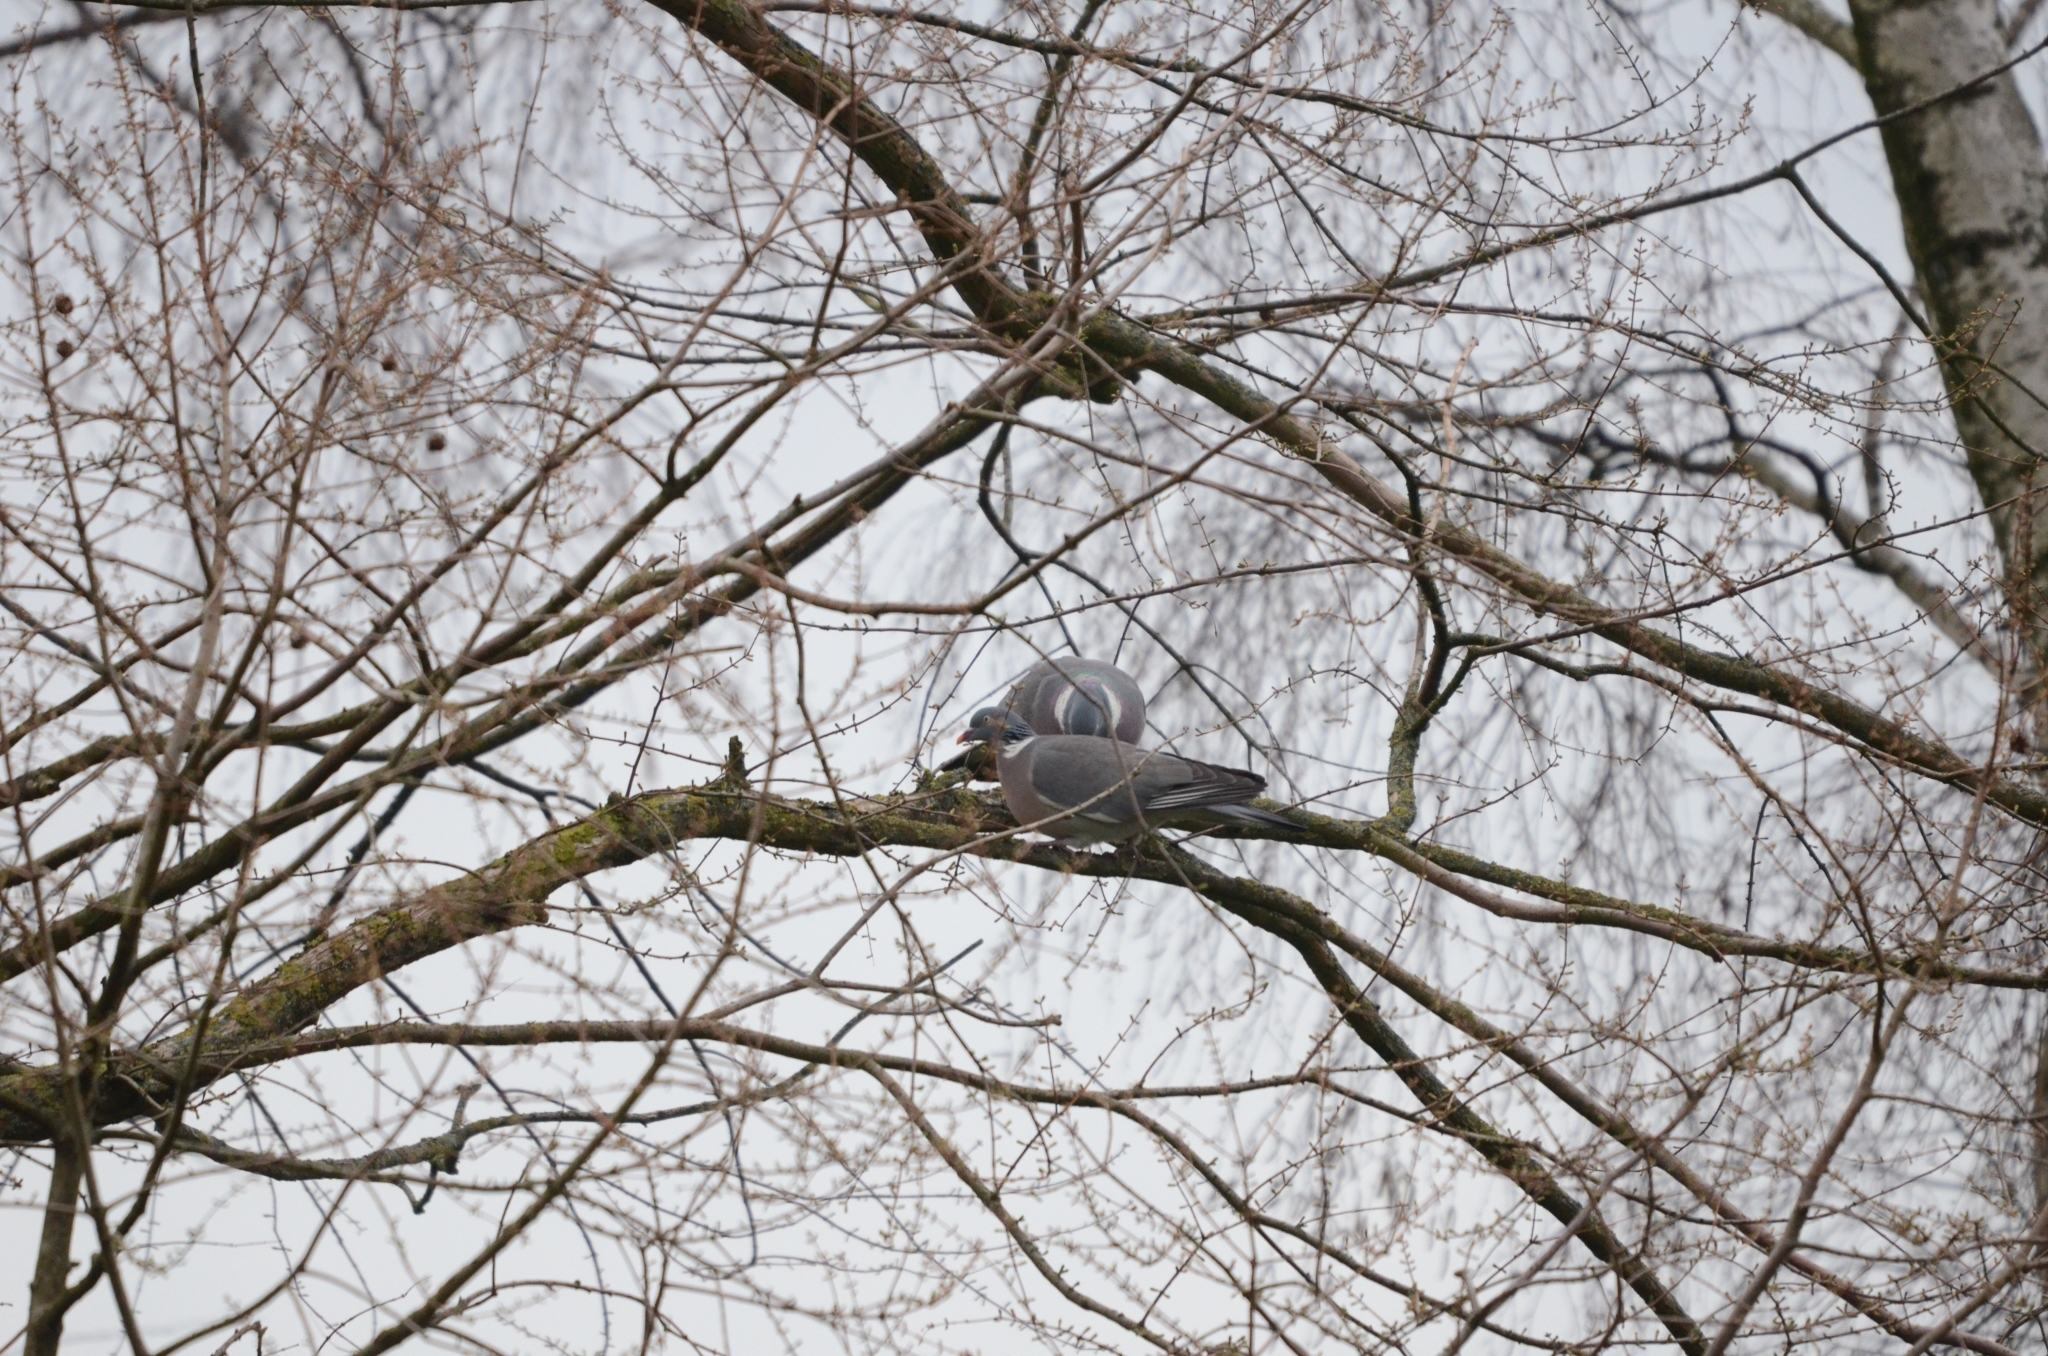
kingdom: Animalia
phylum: Chordata
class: Aves
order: Columbiformes
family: Columbidae
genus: Columba
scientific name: Columba palumbus
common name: Common wood pigeon
